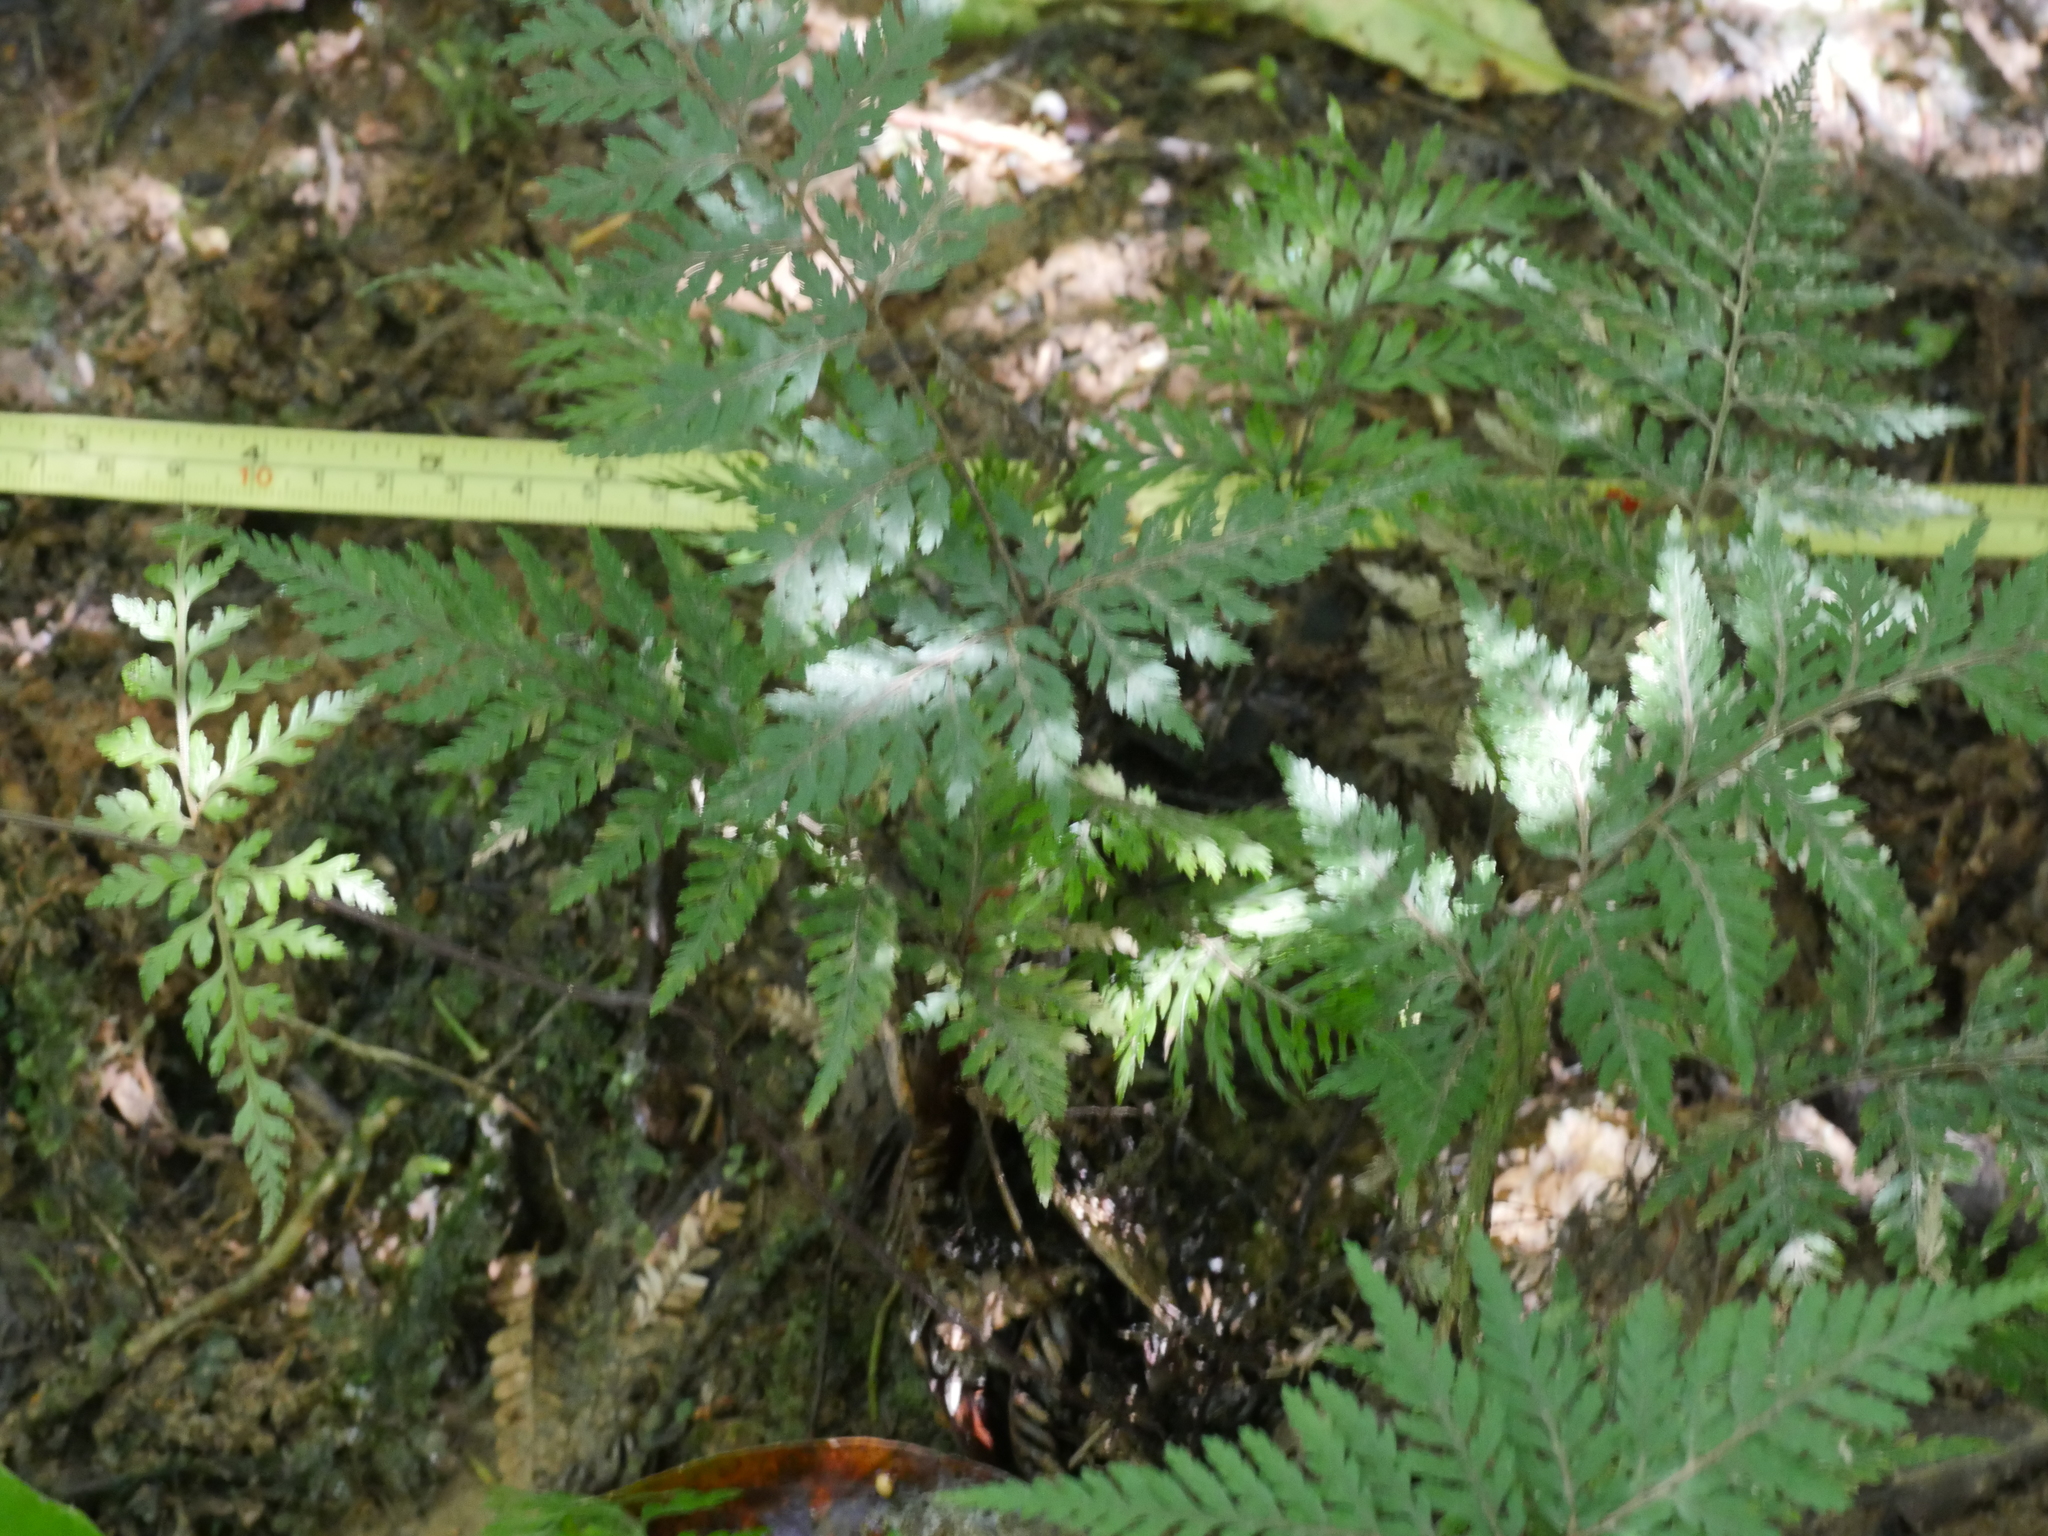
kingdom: Plantae
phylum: Tracheophyta
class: Polypodiopsida
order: Polypodiales
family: Dryopteridaceae
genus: Parapolystichum
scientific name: Parapolystichum glabellum
